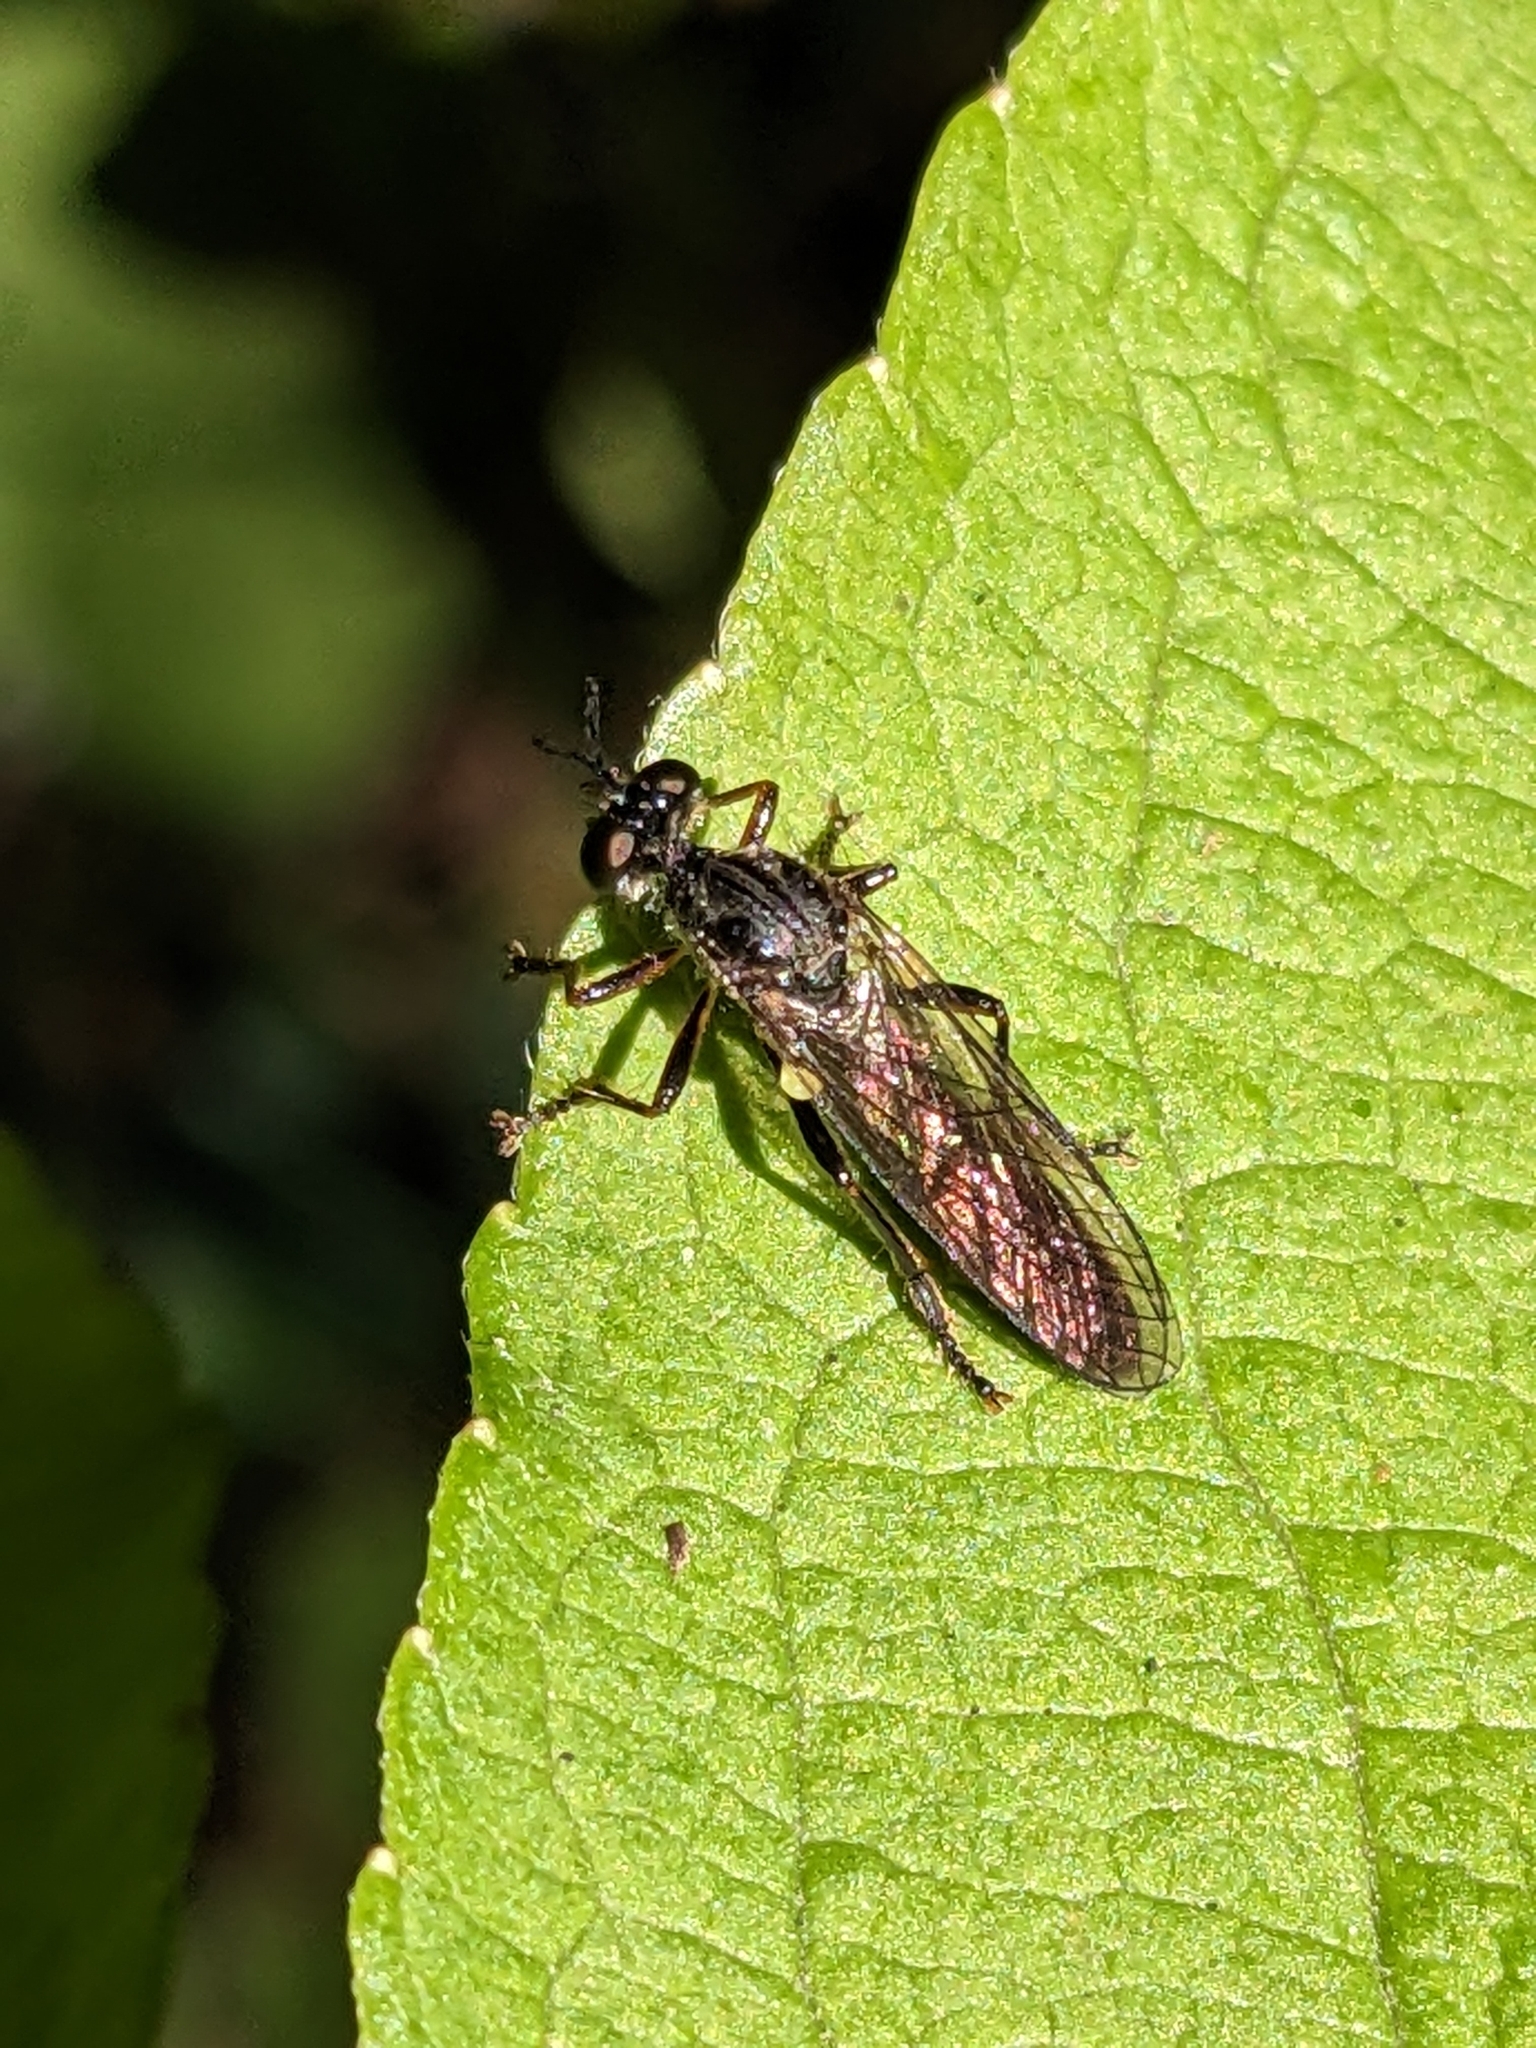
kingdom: Animalia
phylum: Arthropoda
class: Insecta
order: Diptera
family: Asilidae
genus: Dioctria
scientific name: Dioctria hyalipennis
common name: Stripe-legged robberfly
